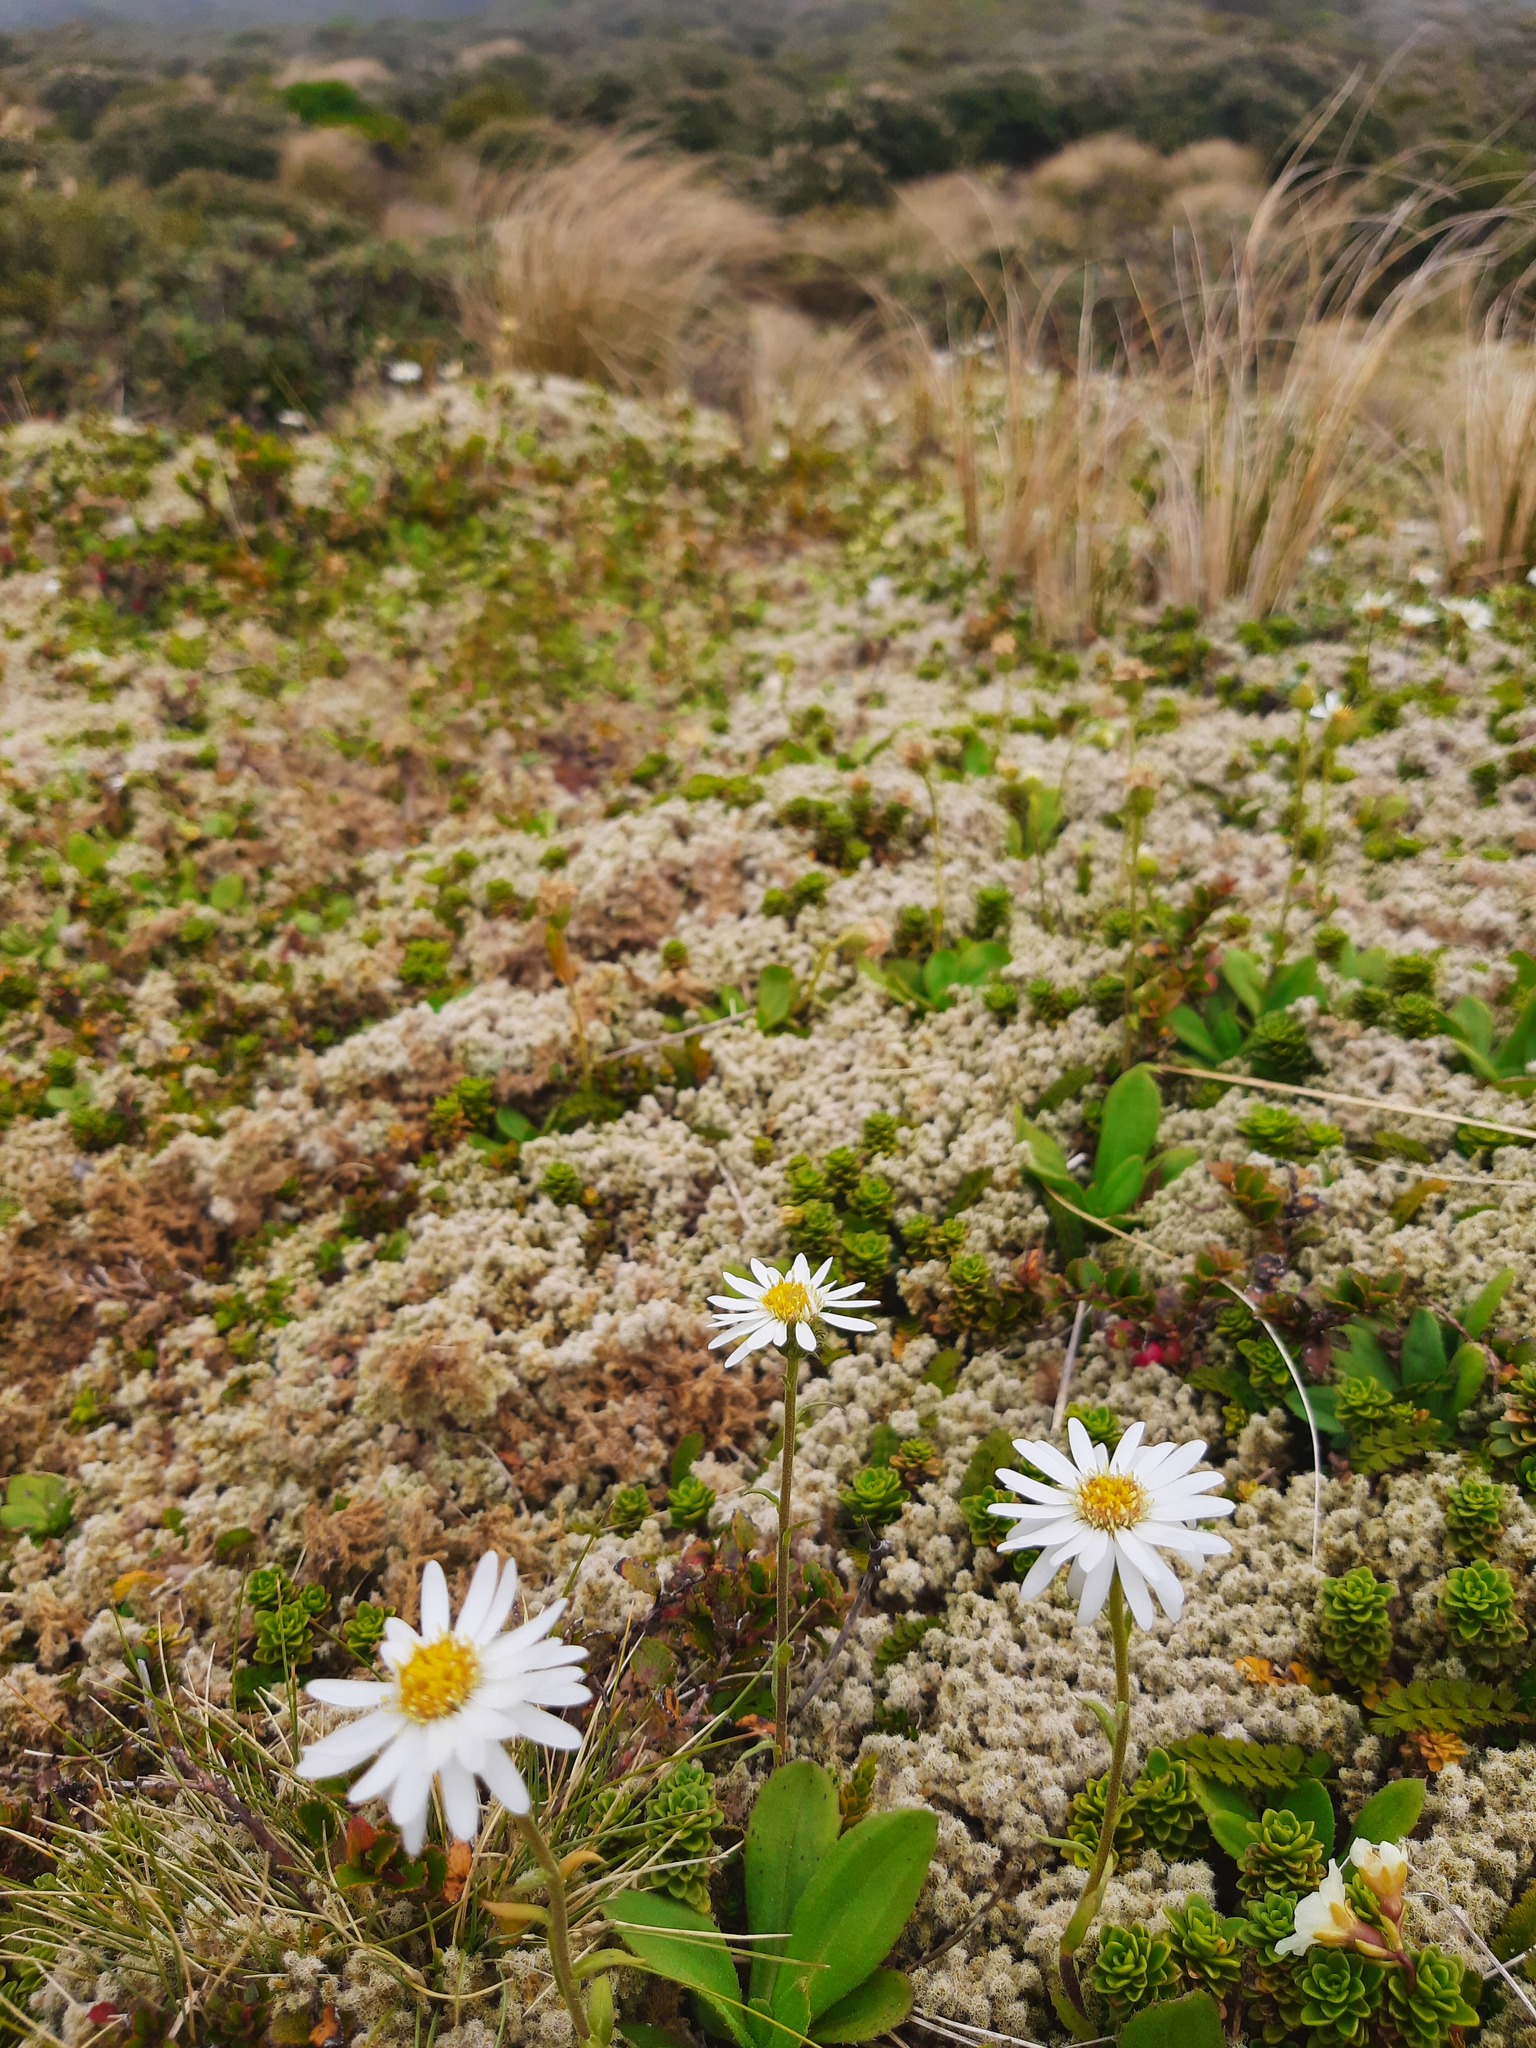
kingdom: Plantae
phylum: Tracheophyta
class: Magnoliopsida
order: Asterales
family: Asteraceae
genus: Celmisia
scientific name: Celmisia glandulosa
